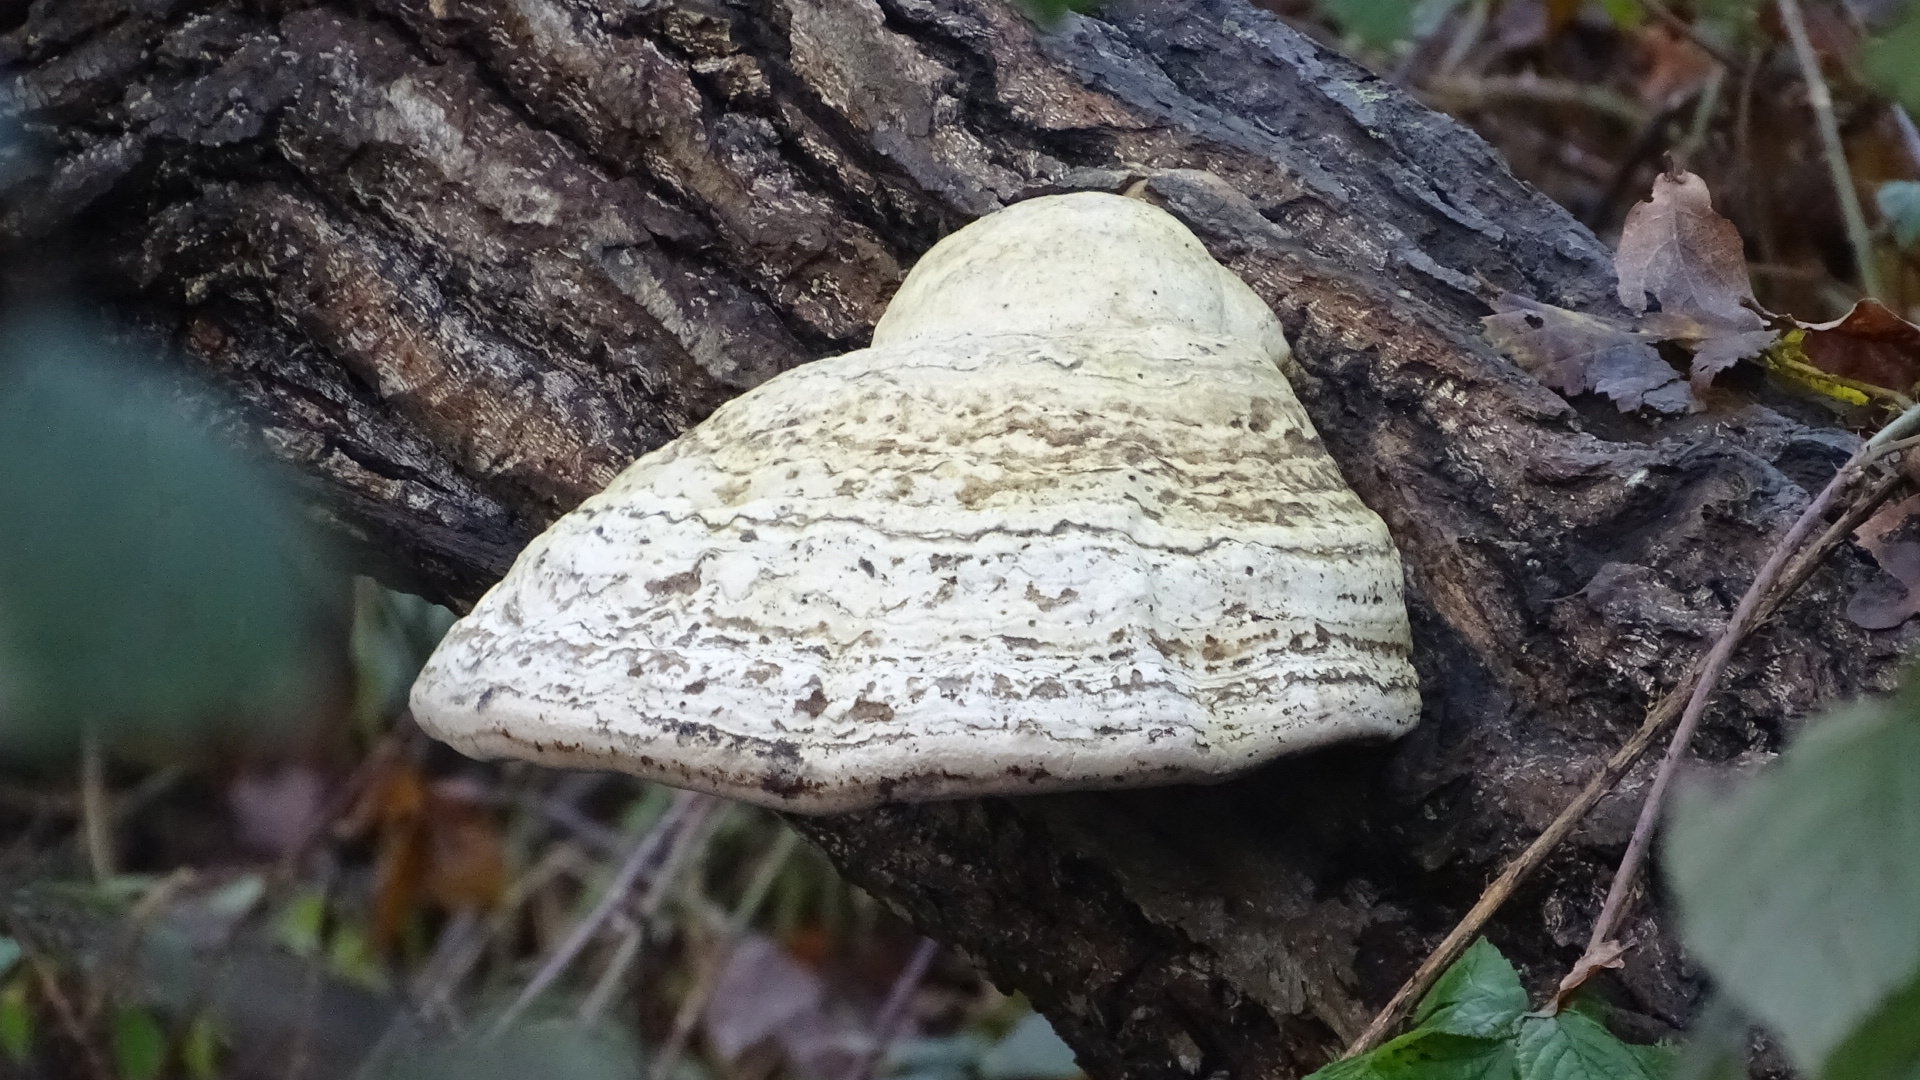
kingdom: Fungi
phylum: Basidiomycota
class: Agaricomycetes
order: Polyporales
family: Polyporaceae
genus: Fomes
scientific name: Fomes fomentarius
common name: Hoof fungus
